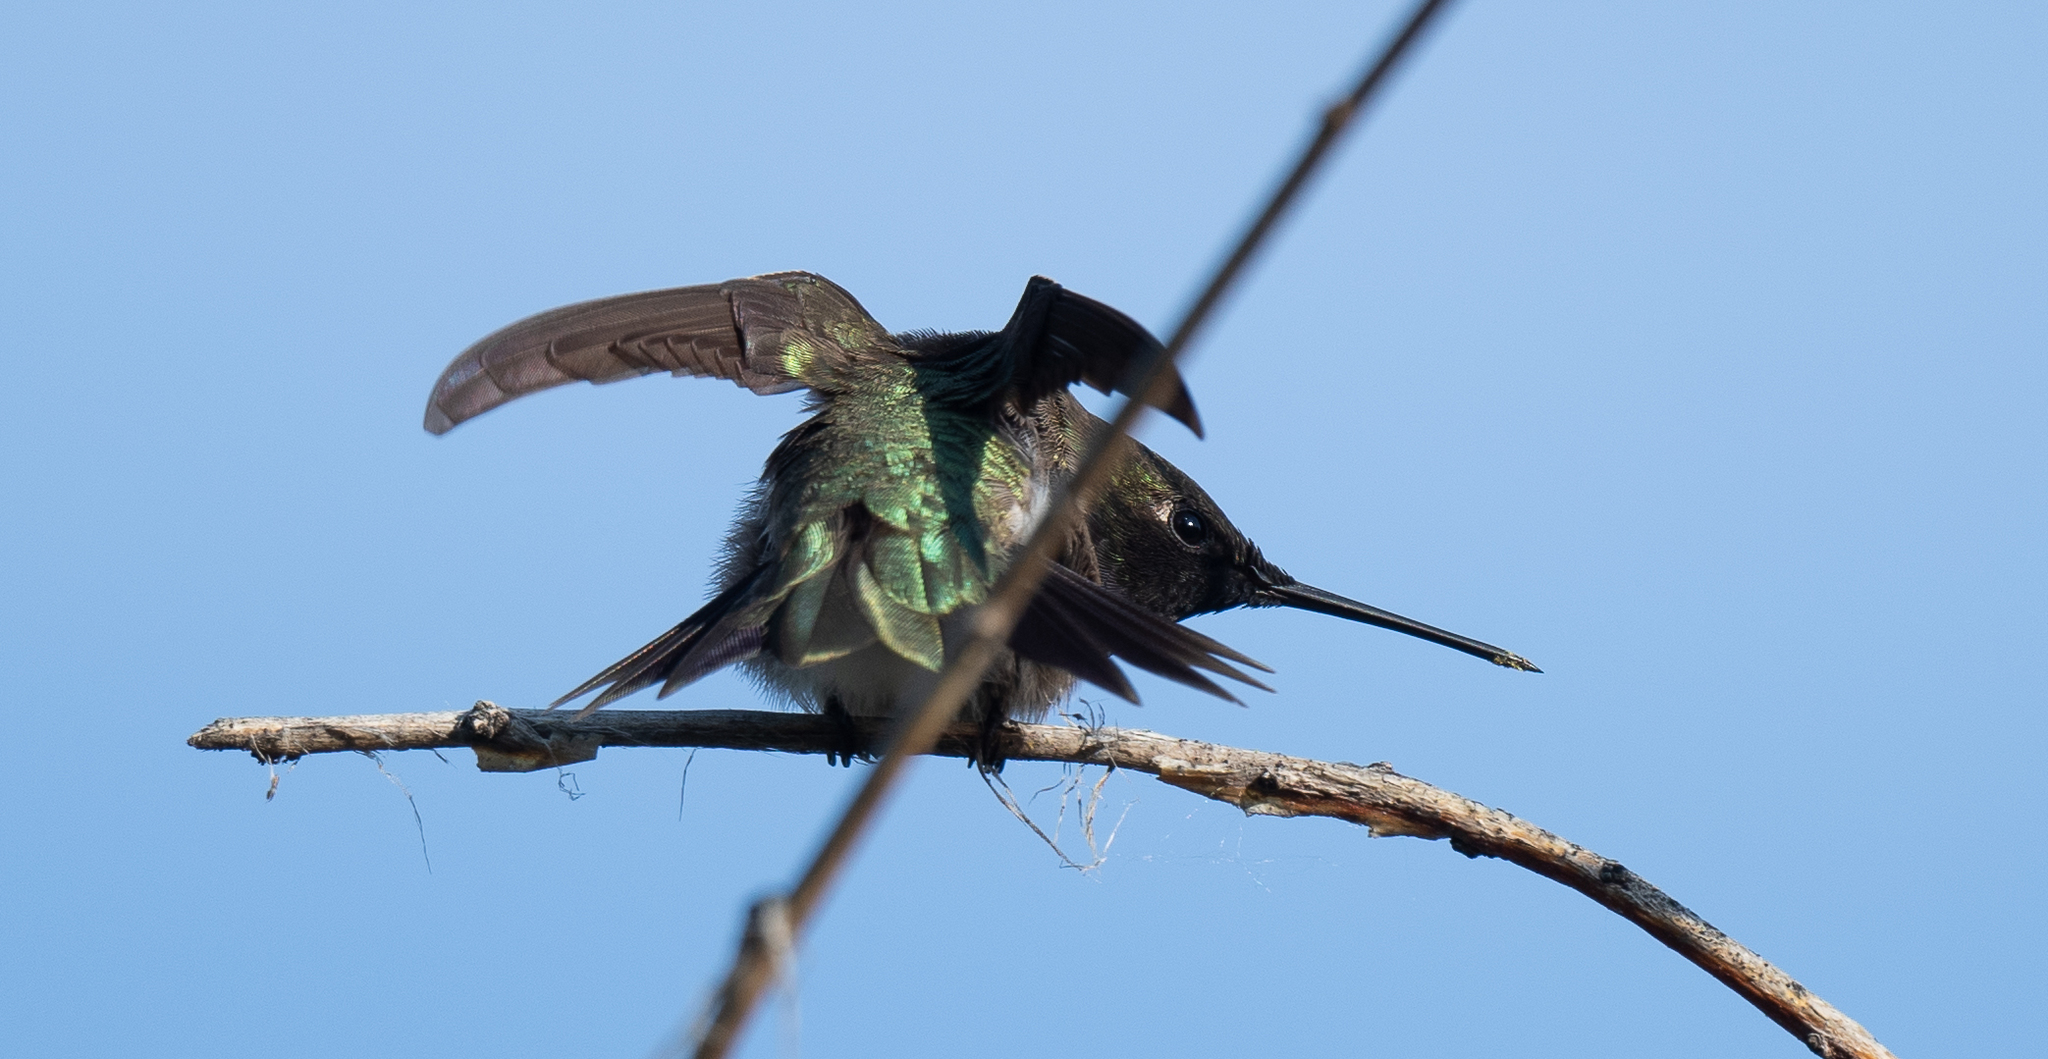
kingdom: Animalia
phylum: Chordata
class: Aves
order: Apodiformes
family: Trochilidae
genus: Archilochus
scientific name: Archilochus alexandri
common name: Black-chinned hummingbird
